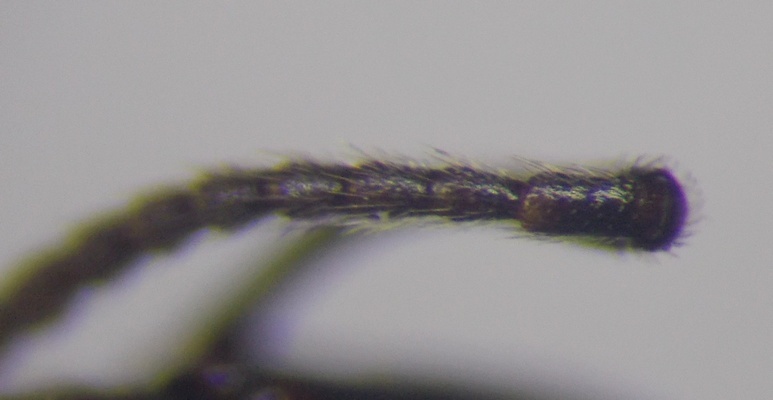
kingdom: Animalia
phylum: Arthropoda
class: Insecta
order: Hymenoptera
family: Formicidae
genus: Messor
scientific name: Messor structor
